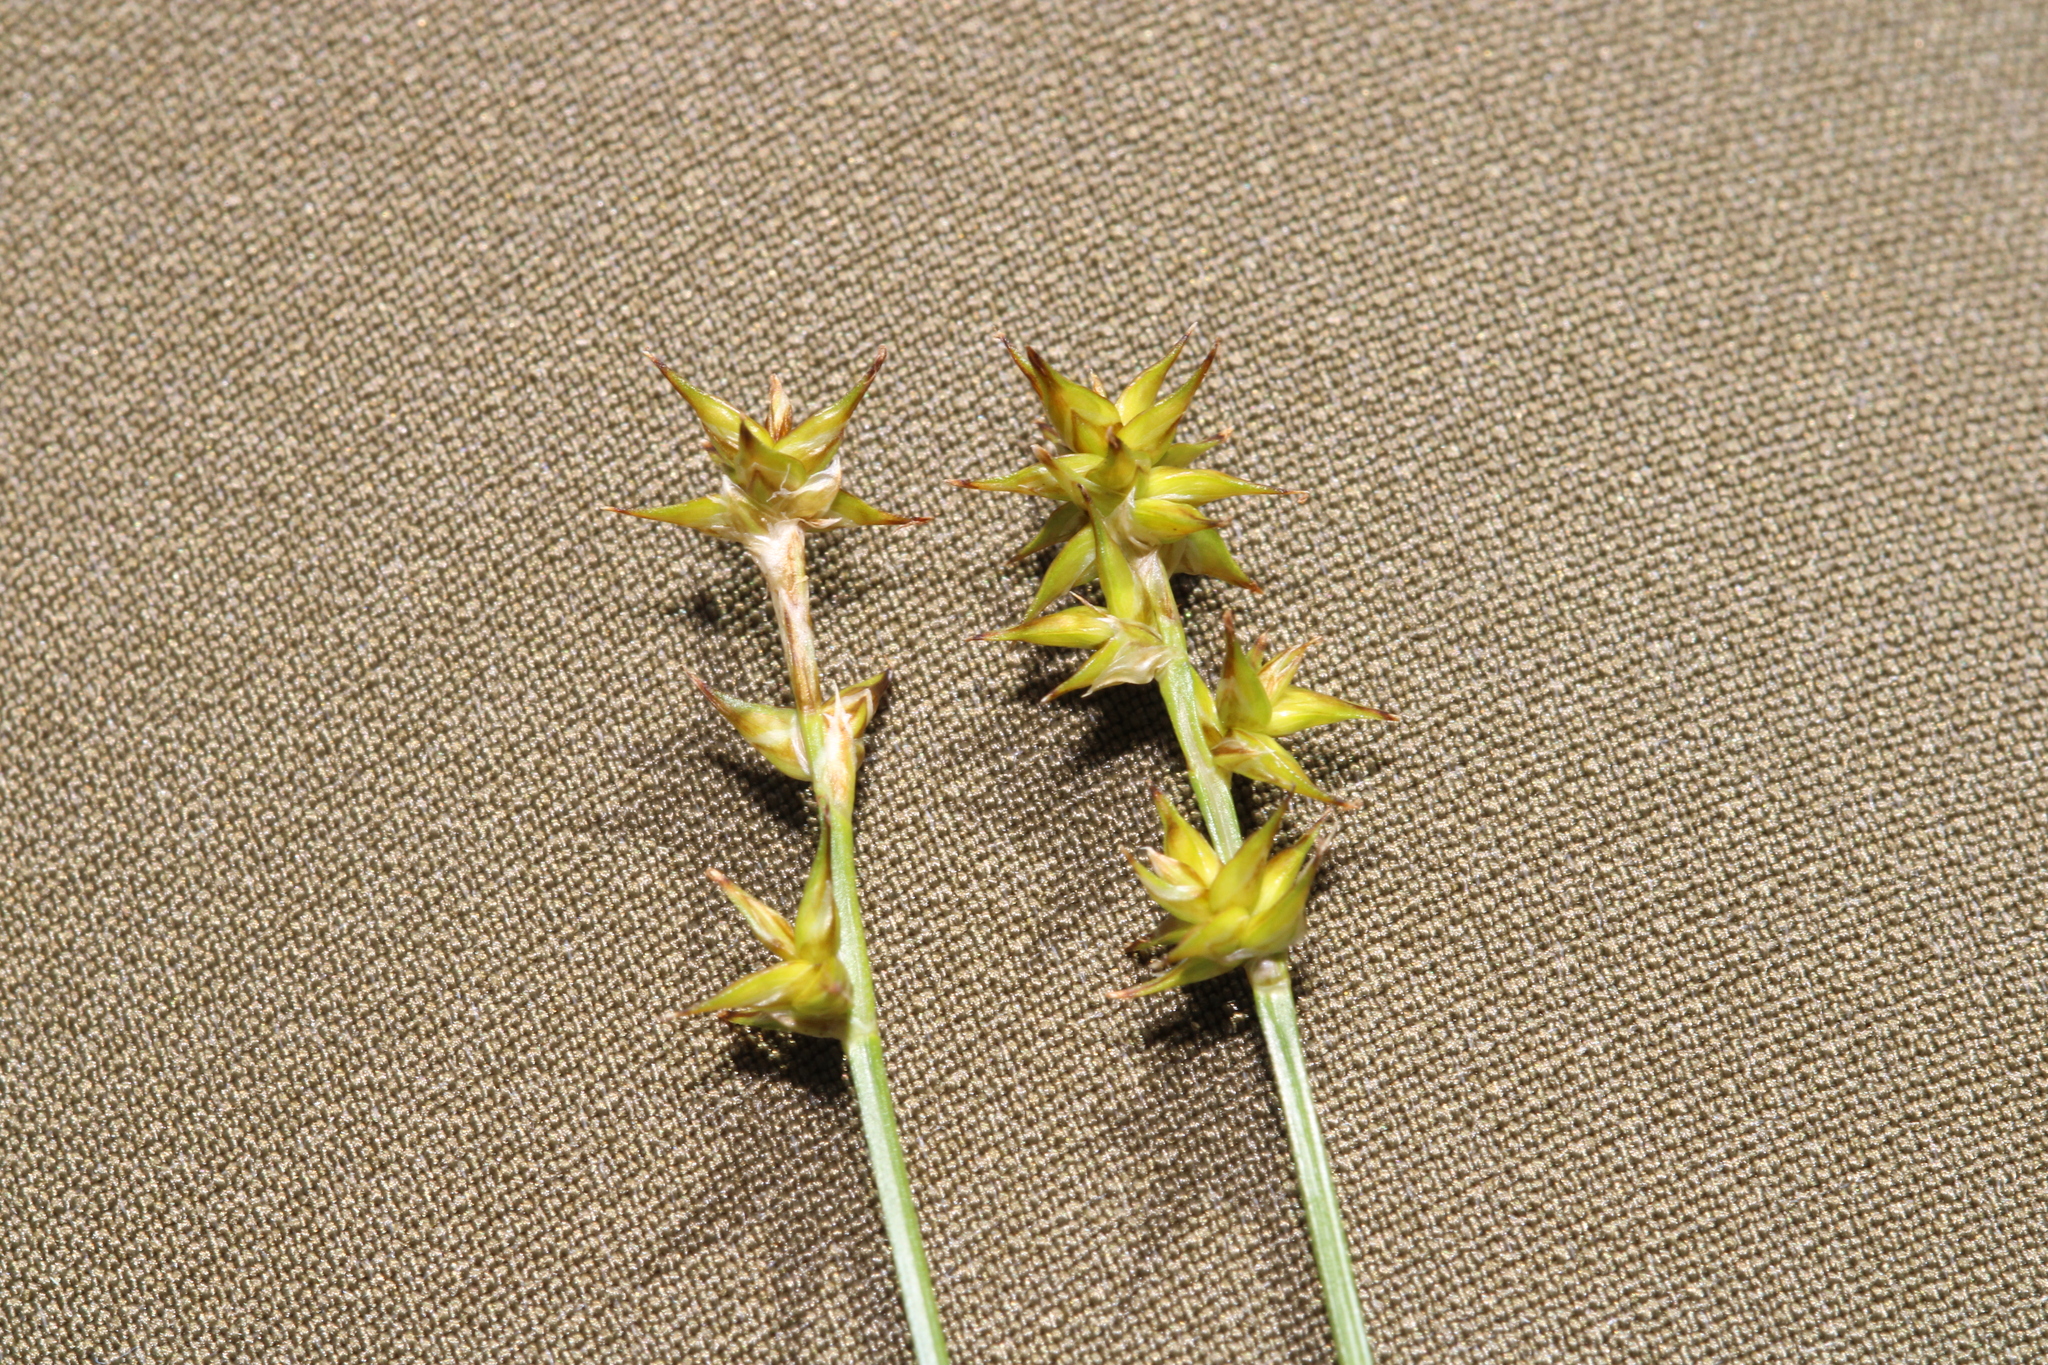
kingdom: Plantae
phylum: Tracheophyta
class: Liliopsida
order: Poales
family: Cyperaceae
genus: Carex
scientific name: Carex echinata
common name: Star sedge
